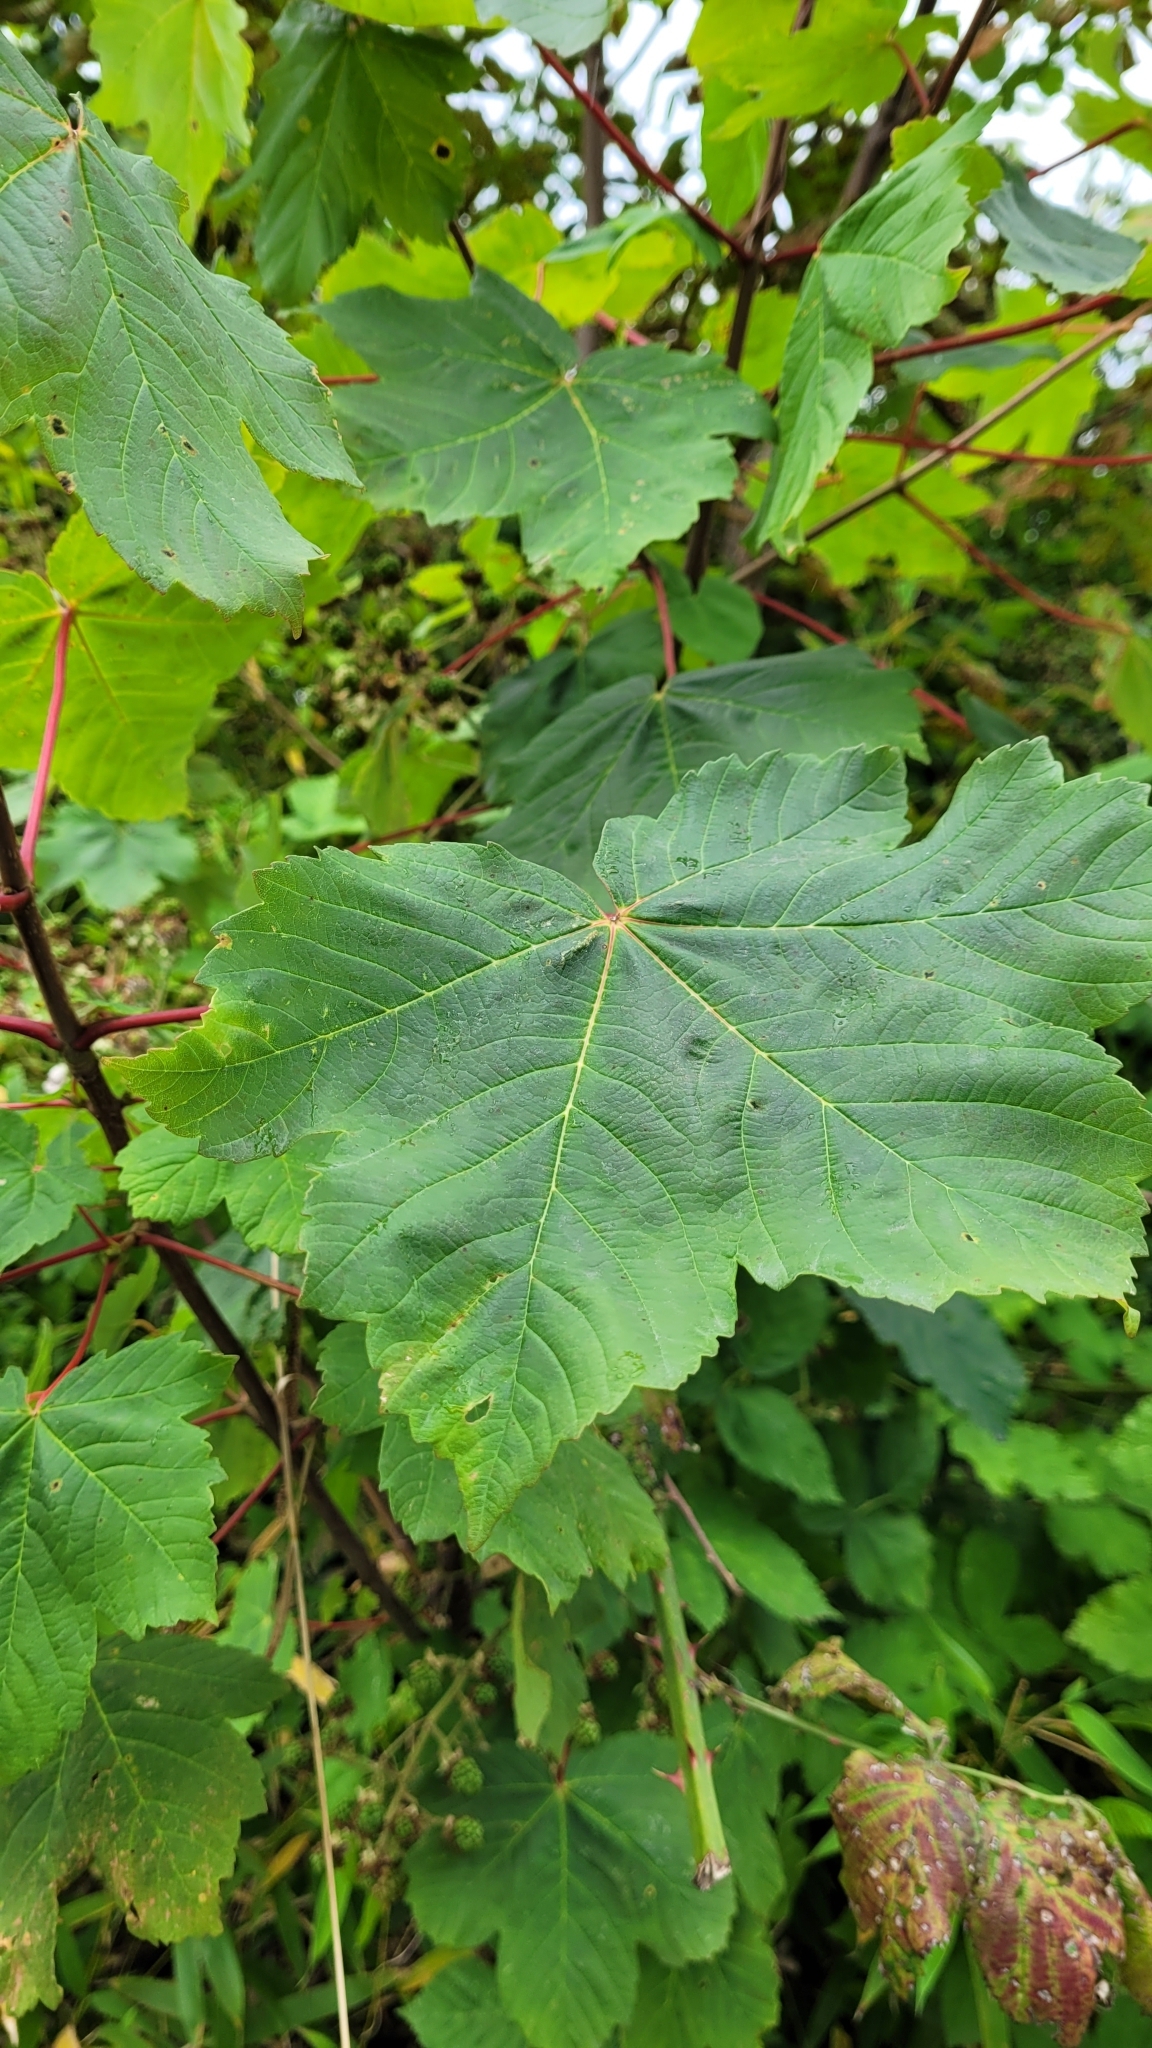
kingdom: Plantae
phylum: Tracheophyta
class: Magnoliopsida
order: Sapindales
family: Sapindaceae
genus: Acer
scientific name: Acer pseudoplatanus
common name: Sycamore
